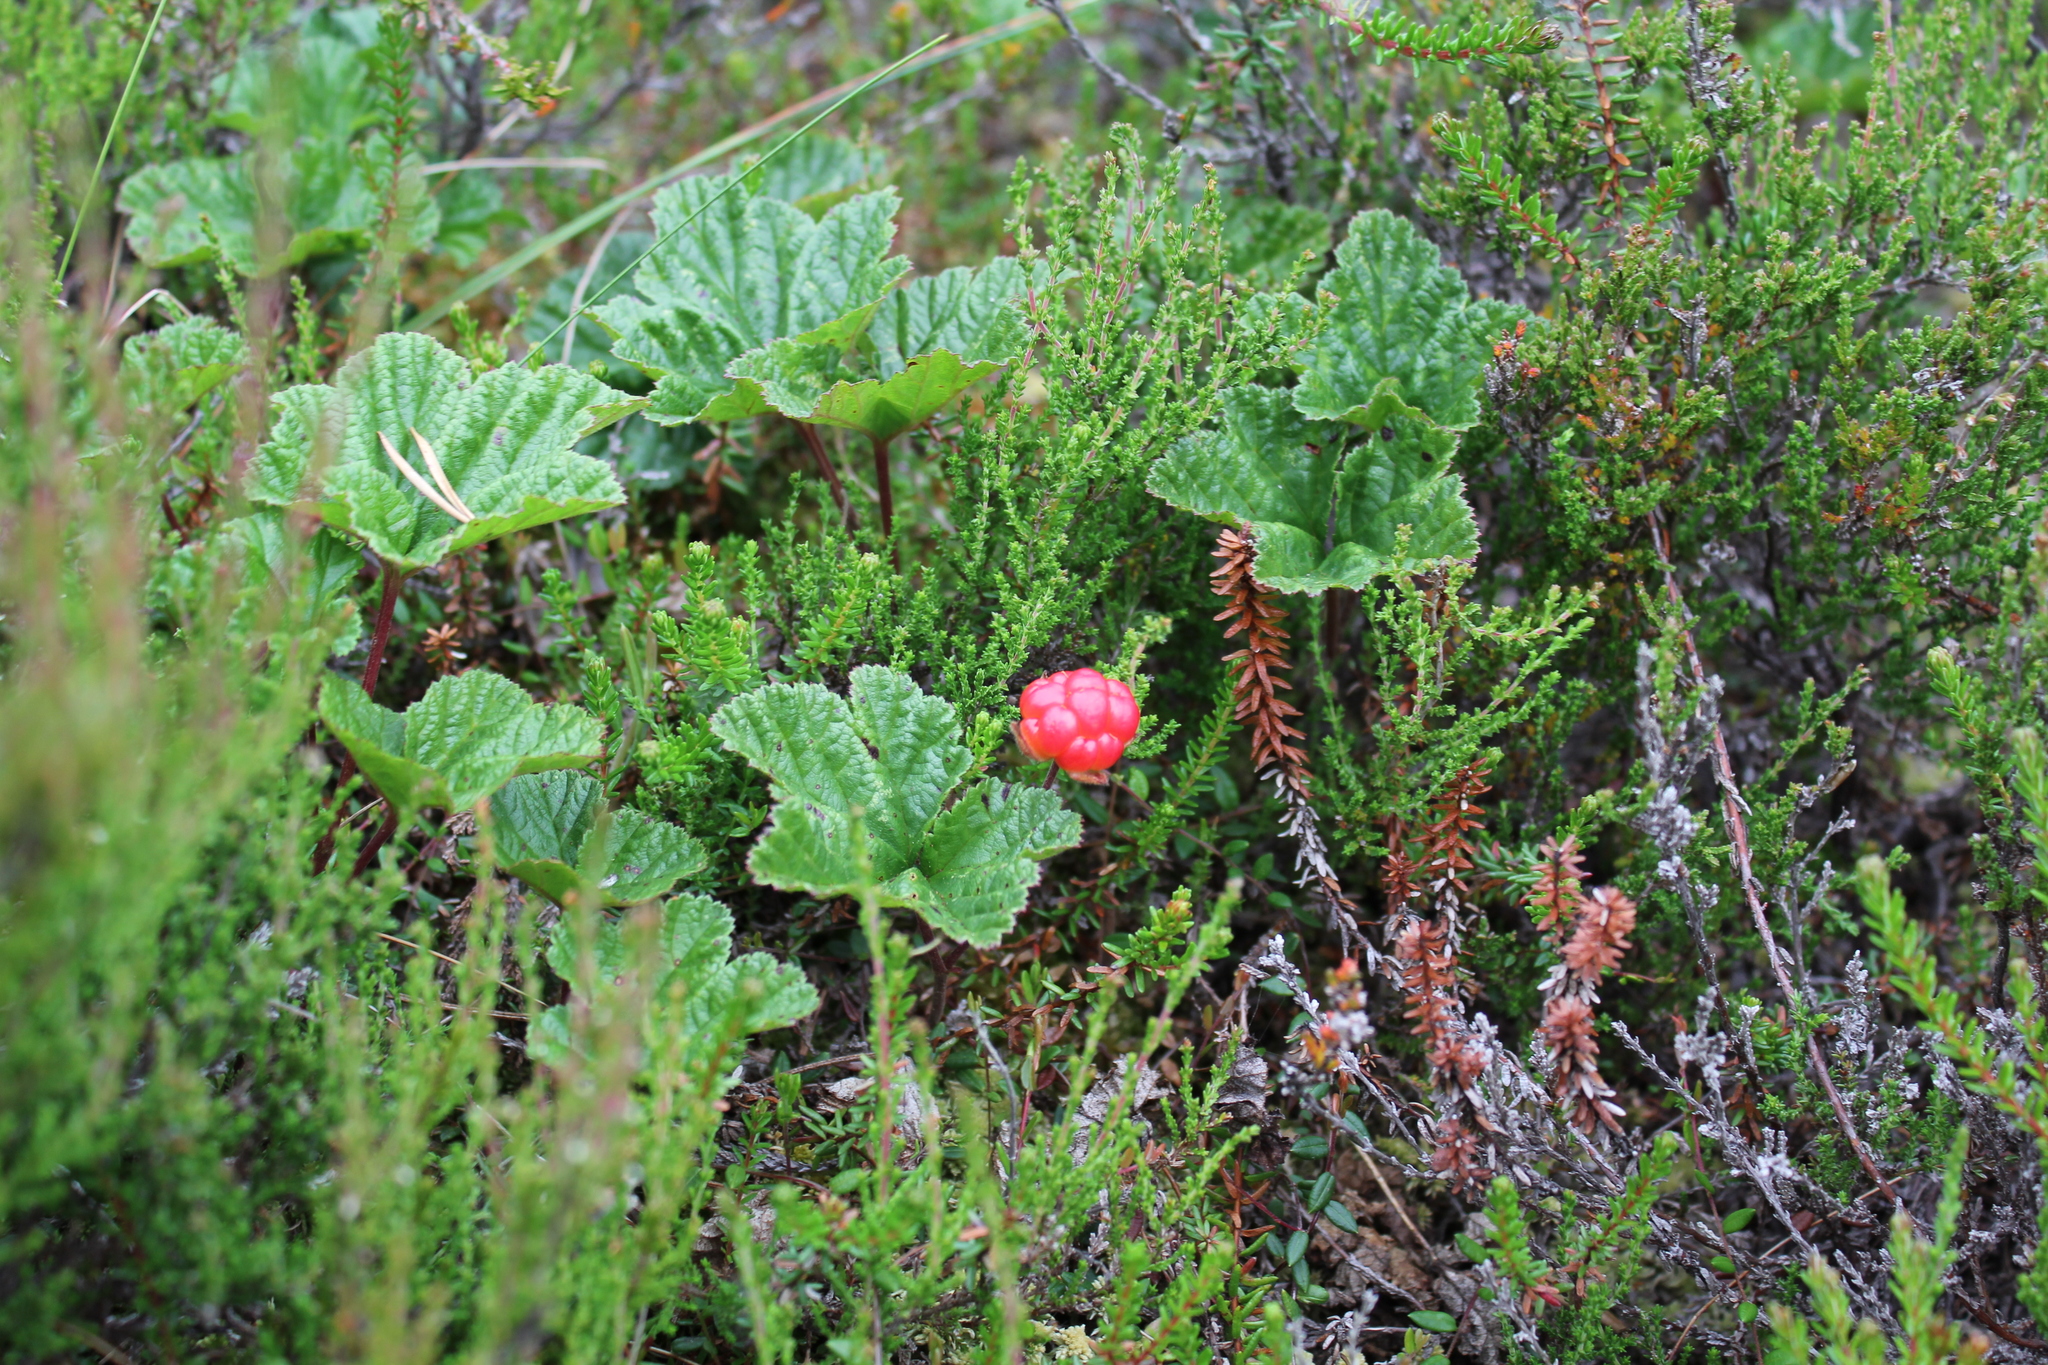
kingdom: Plantae
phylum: Tracheophyta
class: Magnoliopsida
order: Rosales
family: Rosaceae
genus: Rubus
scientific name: Rubus chamaemorus
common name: Cloudberry
